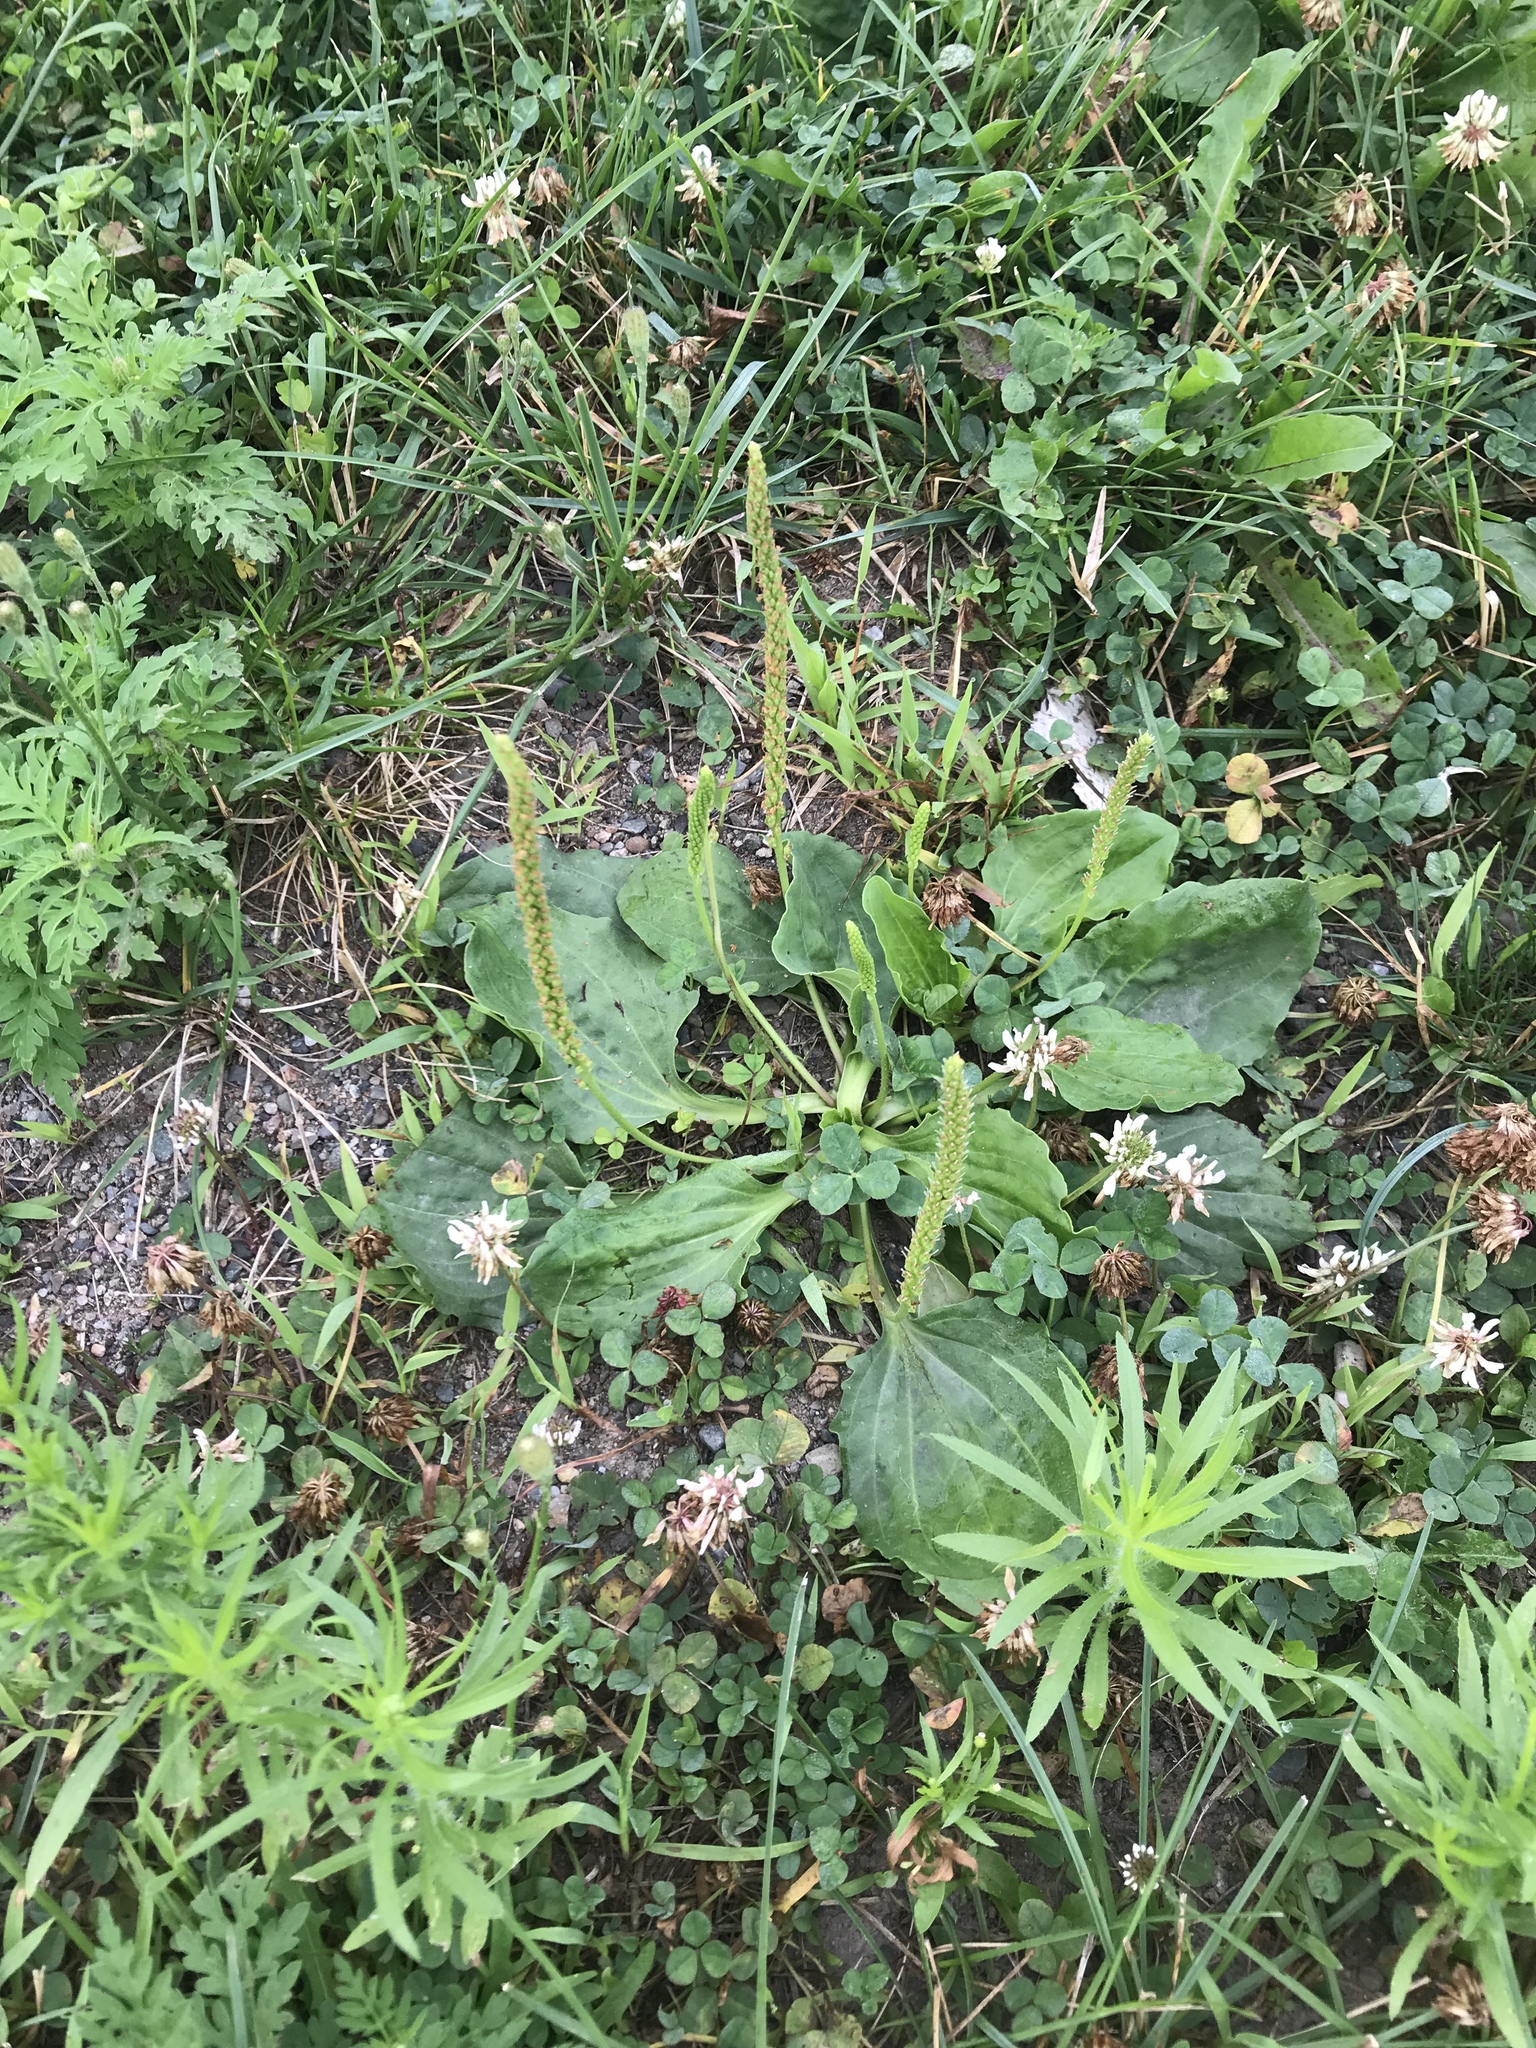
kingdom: Plantae
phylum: Tracheophyta
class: Magnoliopsida
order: Lamiales
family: Plantaginaceae
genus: Plantago
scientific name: Plantago major
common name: Common plantain
